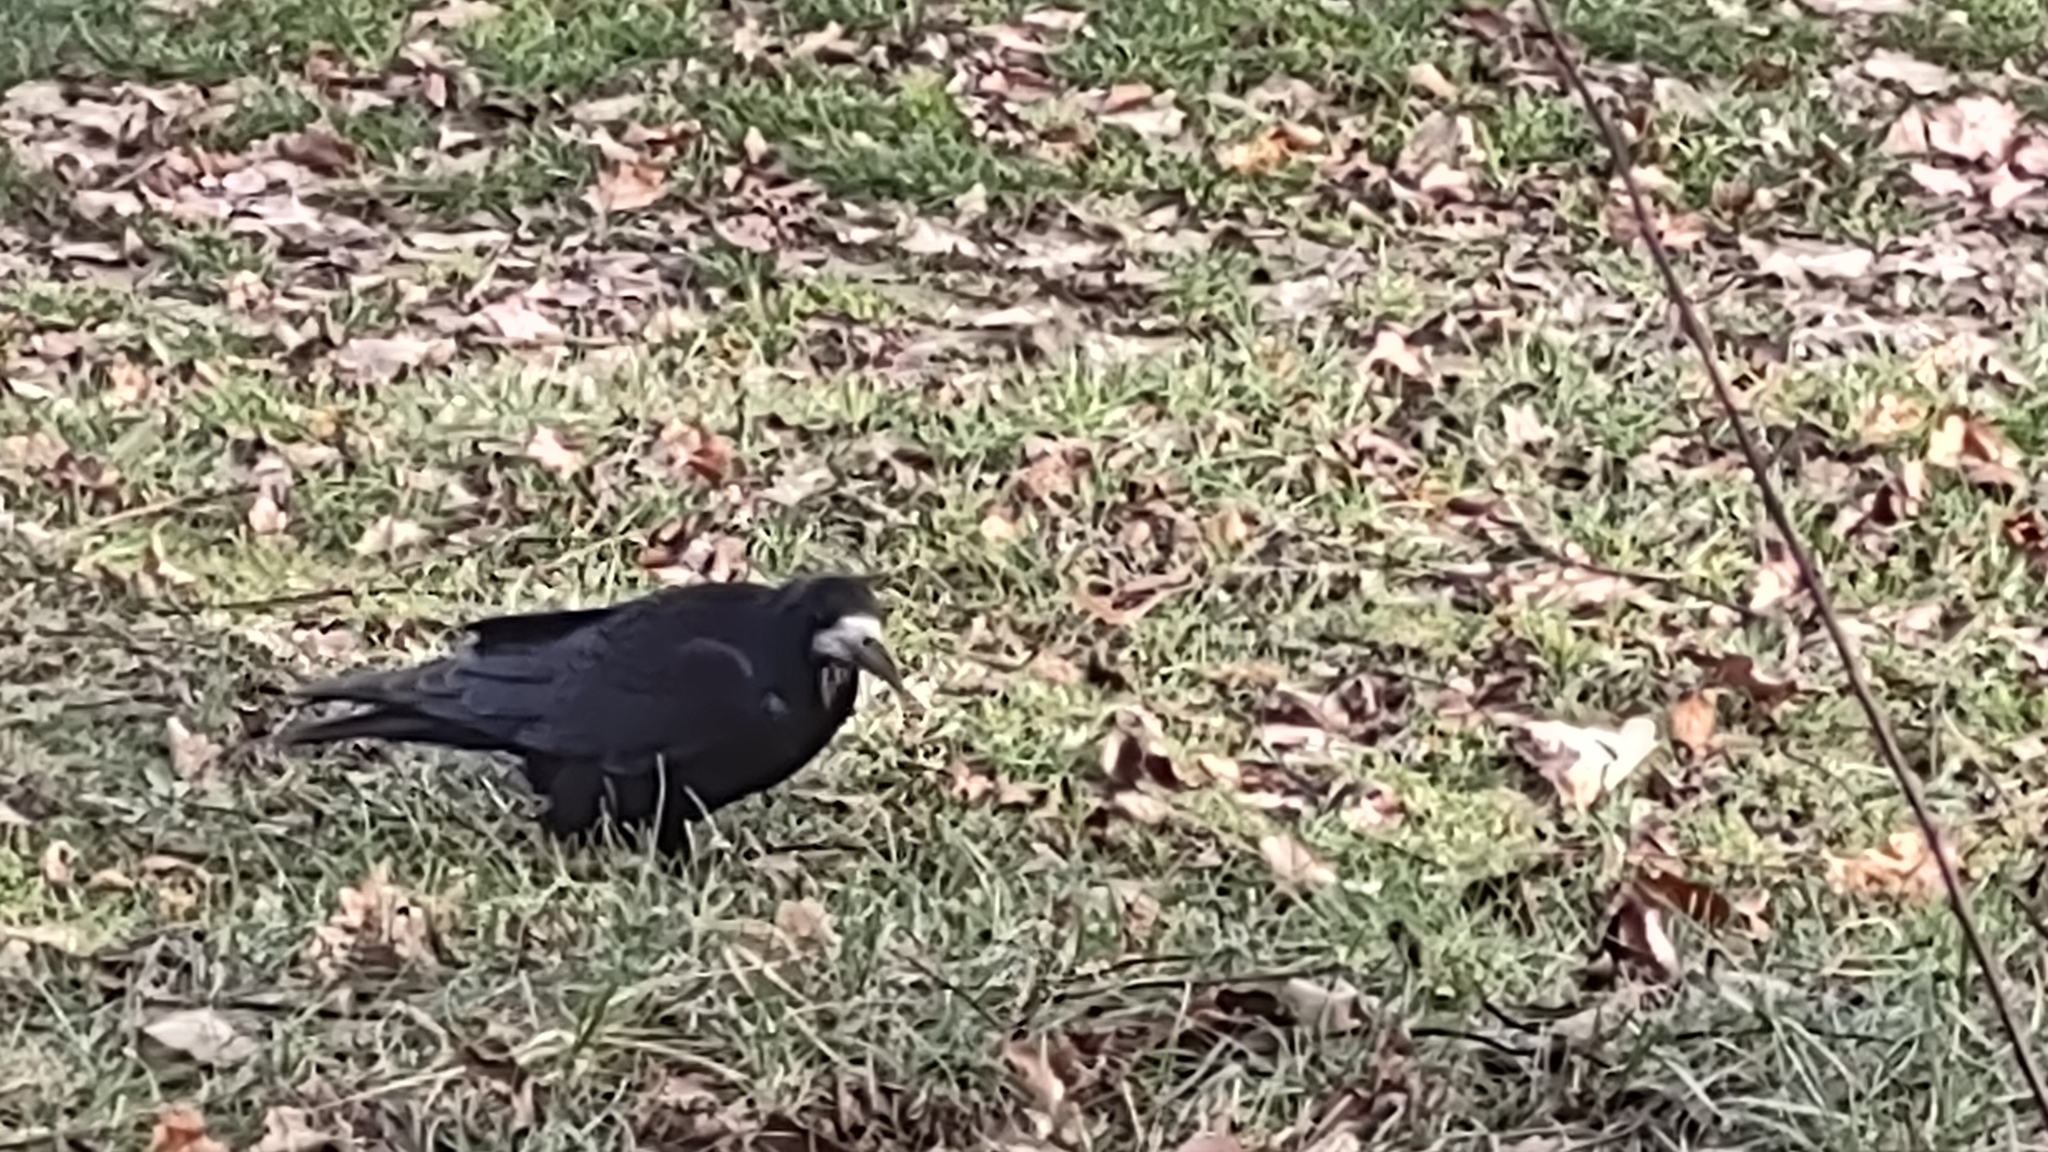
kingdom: Animalia
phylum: Chordata
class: Aves
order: Passeriformes
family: Corvidae
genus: Corvus
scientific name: Corvus frugilegus
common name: Rook
